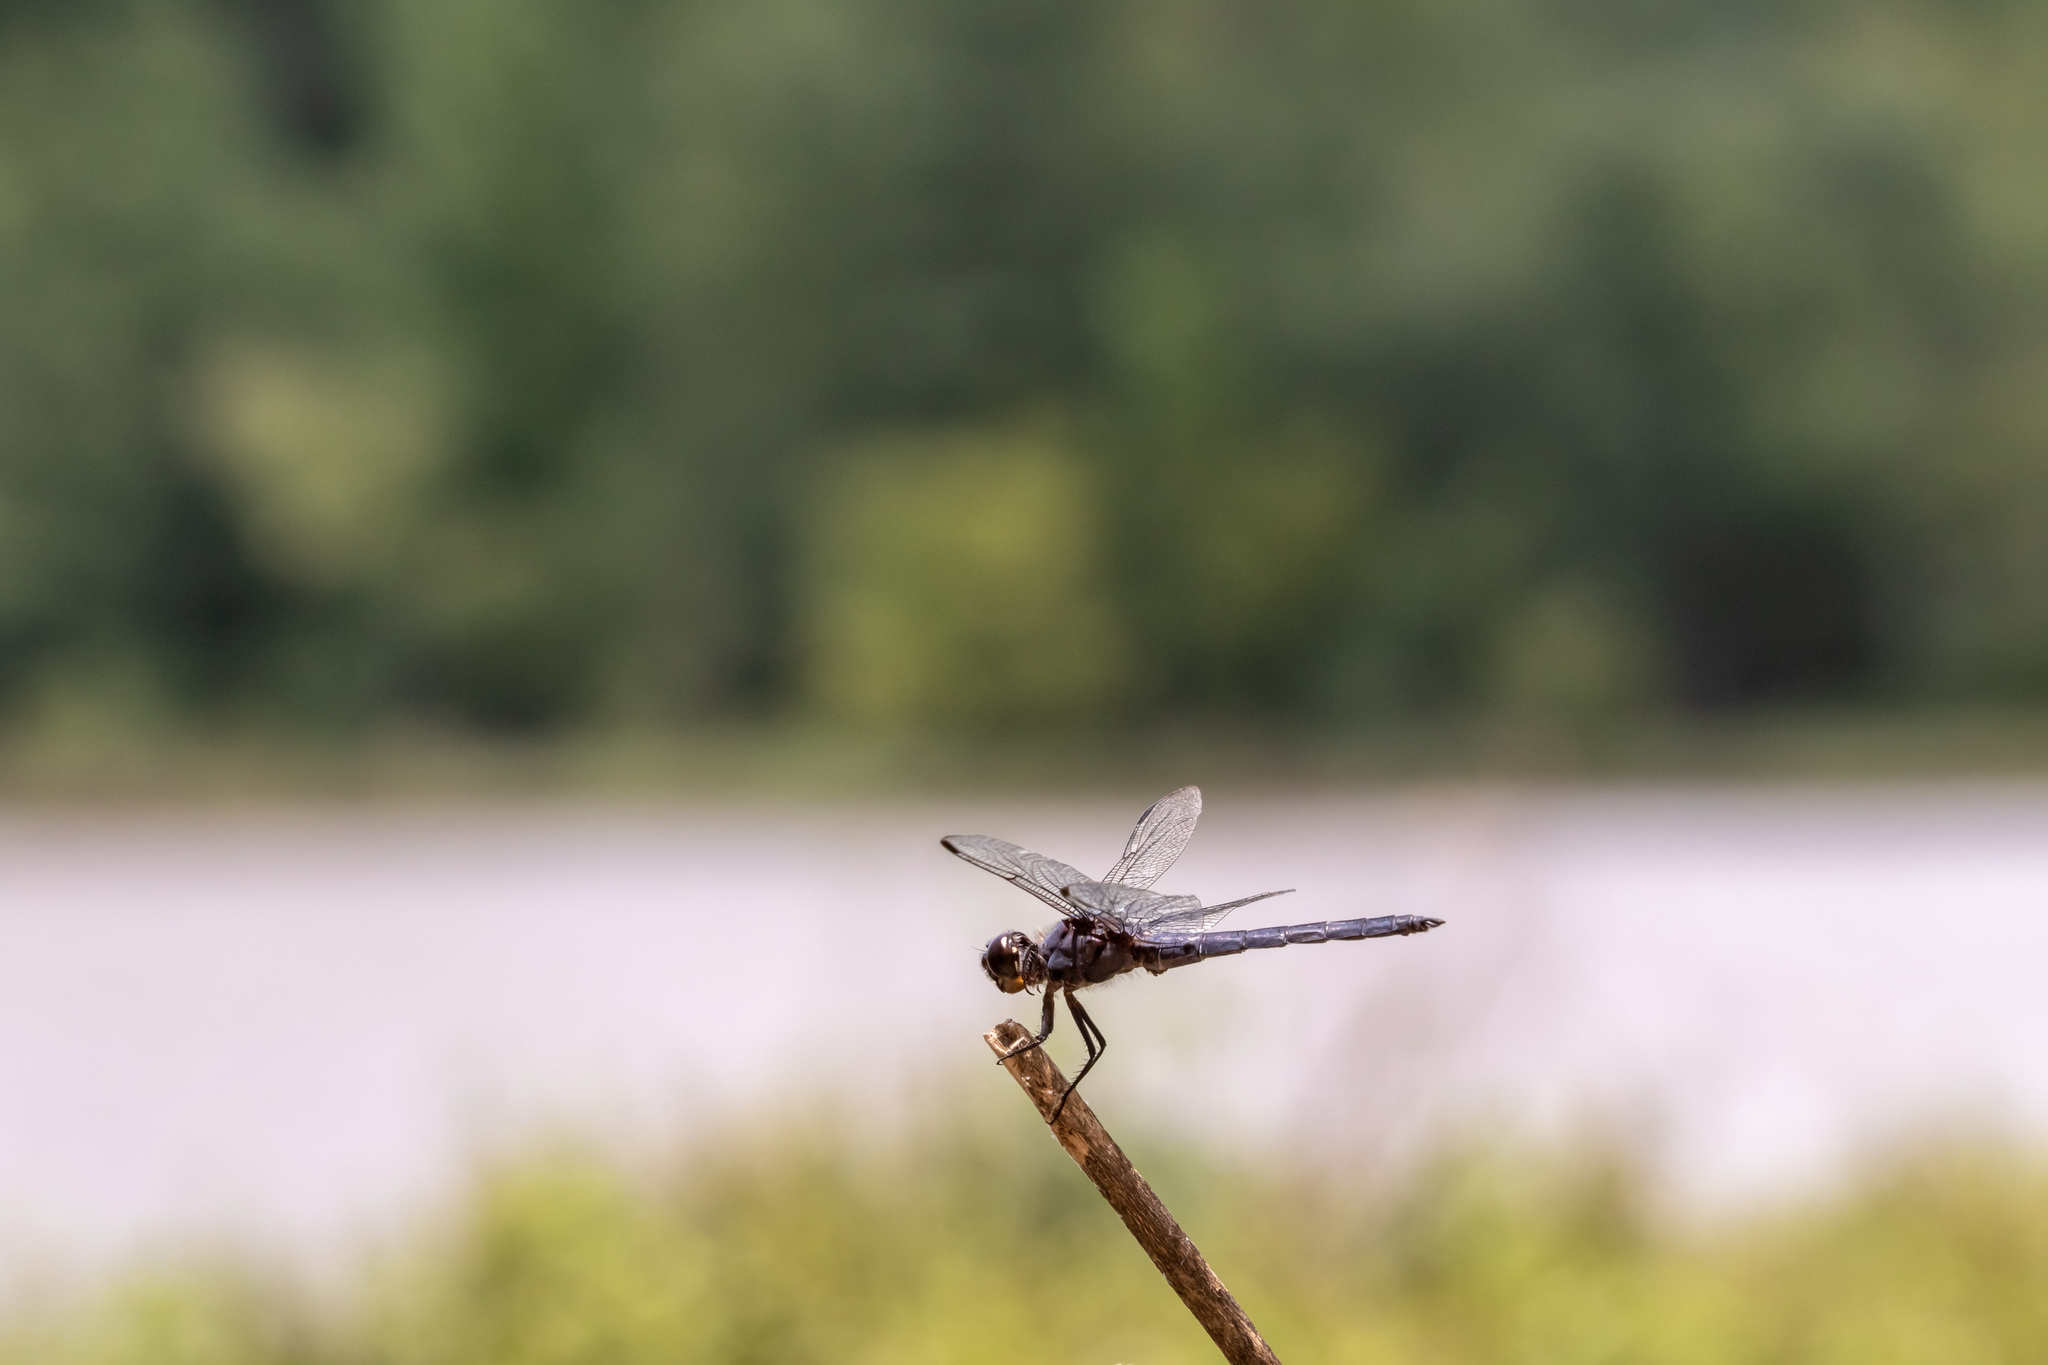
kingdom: Animalia
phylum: Arthropoda
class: Insecta
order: Odonata
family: Libellulidae
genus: Libellula
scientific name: Libellula incesta
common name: Slaty skimmer
